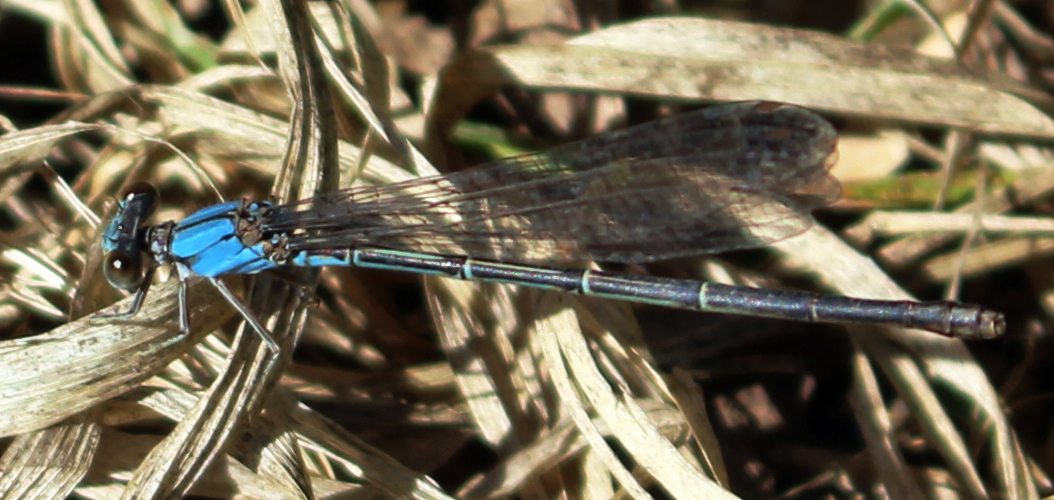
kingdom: Animalia
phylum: Arthropoda
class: Insecta
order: Odonata
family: Coenagrionidae
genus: Argia
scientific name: Argia apicalis
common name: Blue-fronted dancer
